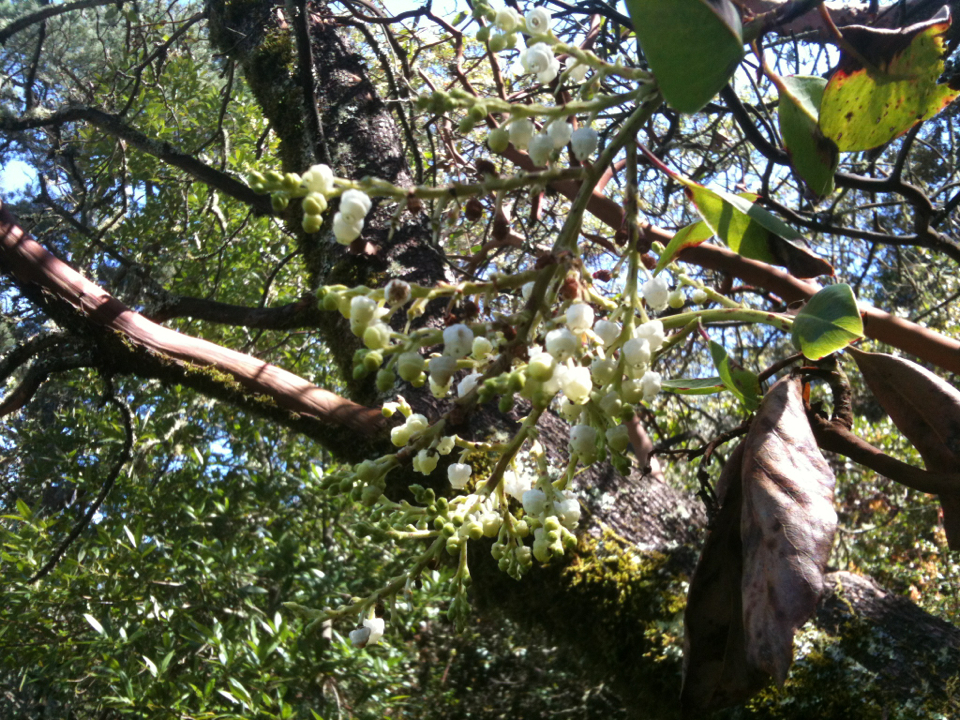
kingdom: Plantae
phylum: Tracheophyta
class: Magnoliopsida
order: Ericales
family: Ericaceae
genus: Arbutus
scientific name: Arbutus menziesii
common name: Pacific madrone
